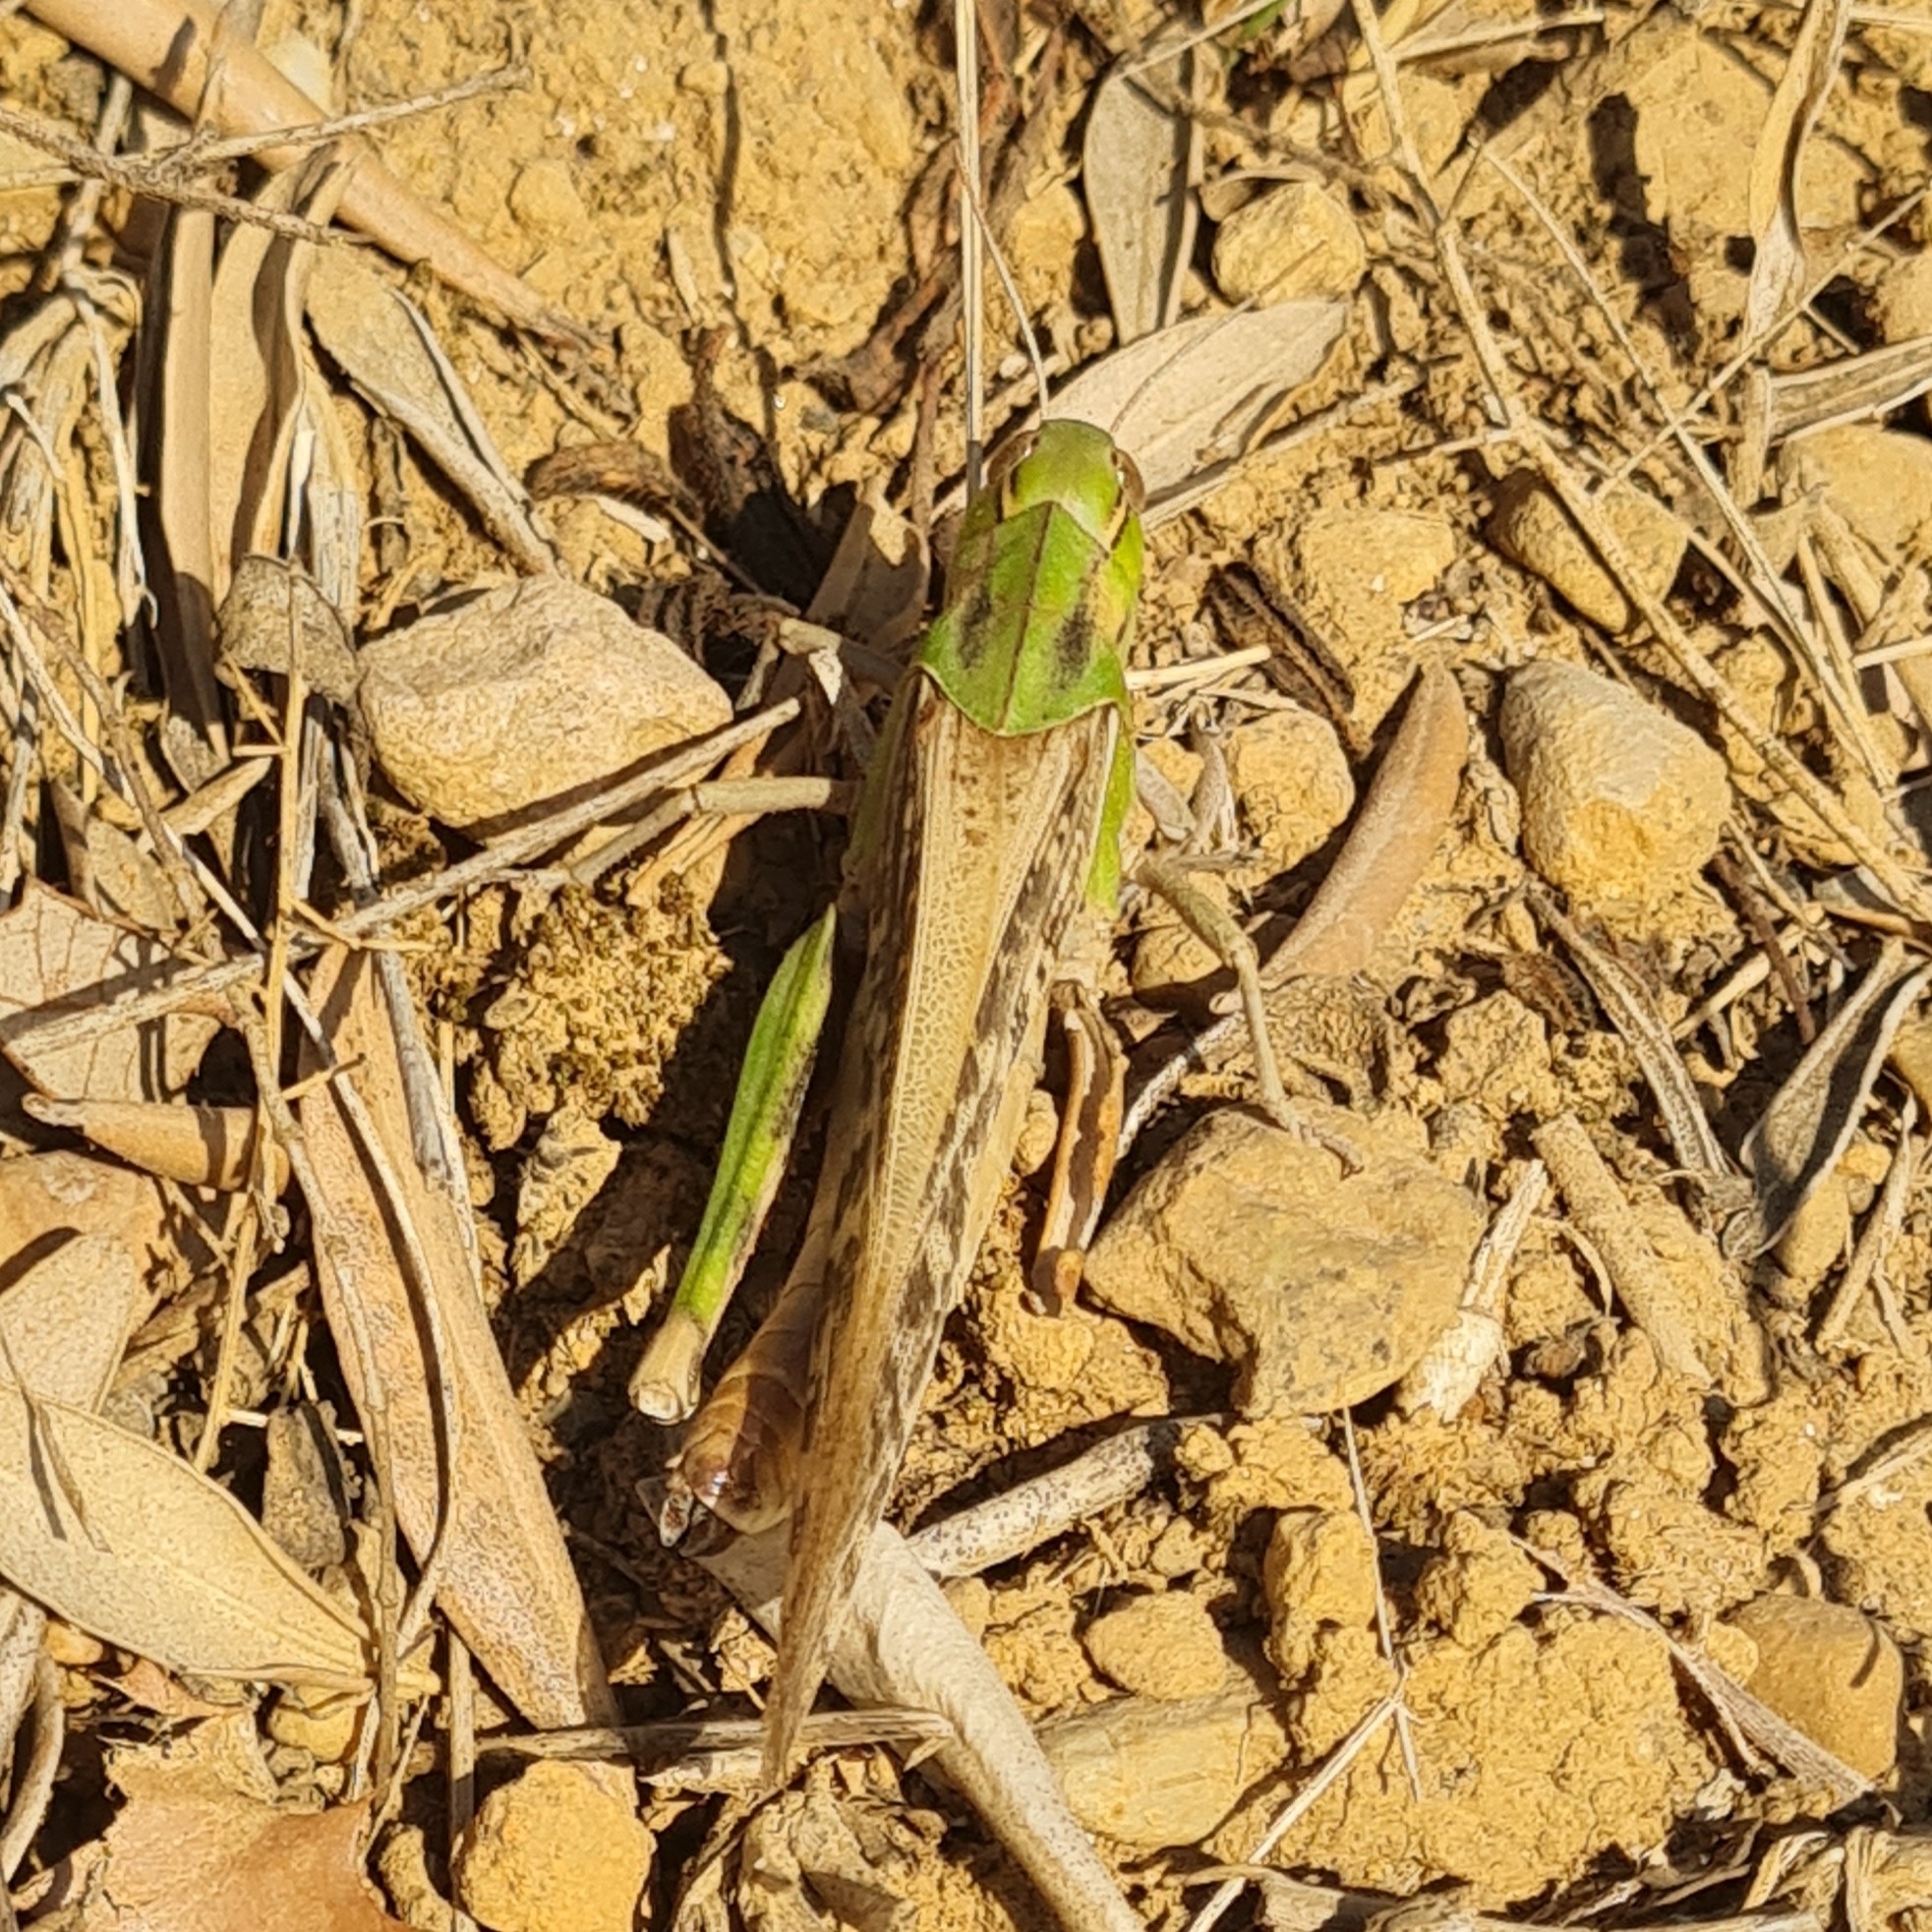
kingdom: Animalia
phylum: Arthropoda
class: Insecta
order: Orthoptera
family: Acrididae
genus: Locusta
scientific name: Locusta migratoria
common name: Migratory locust
